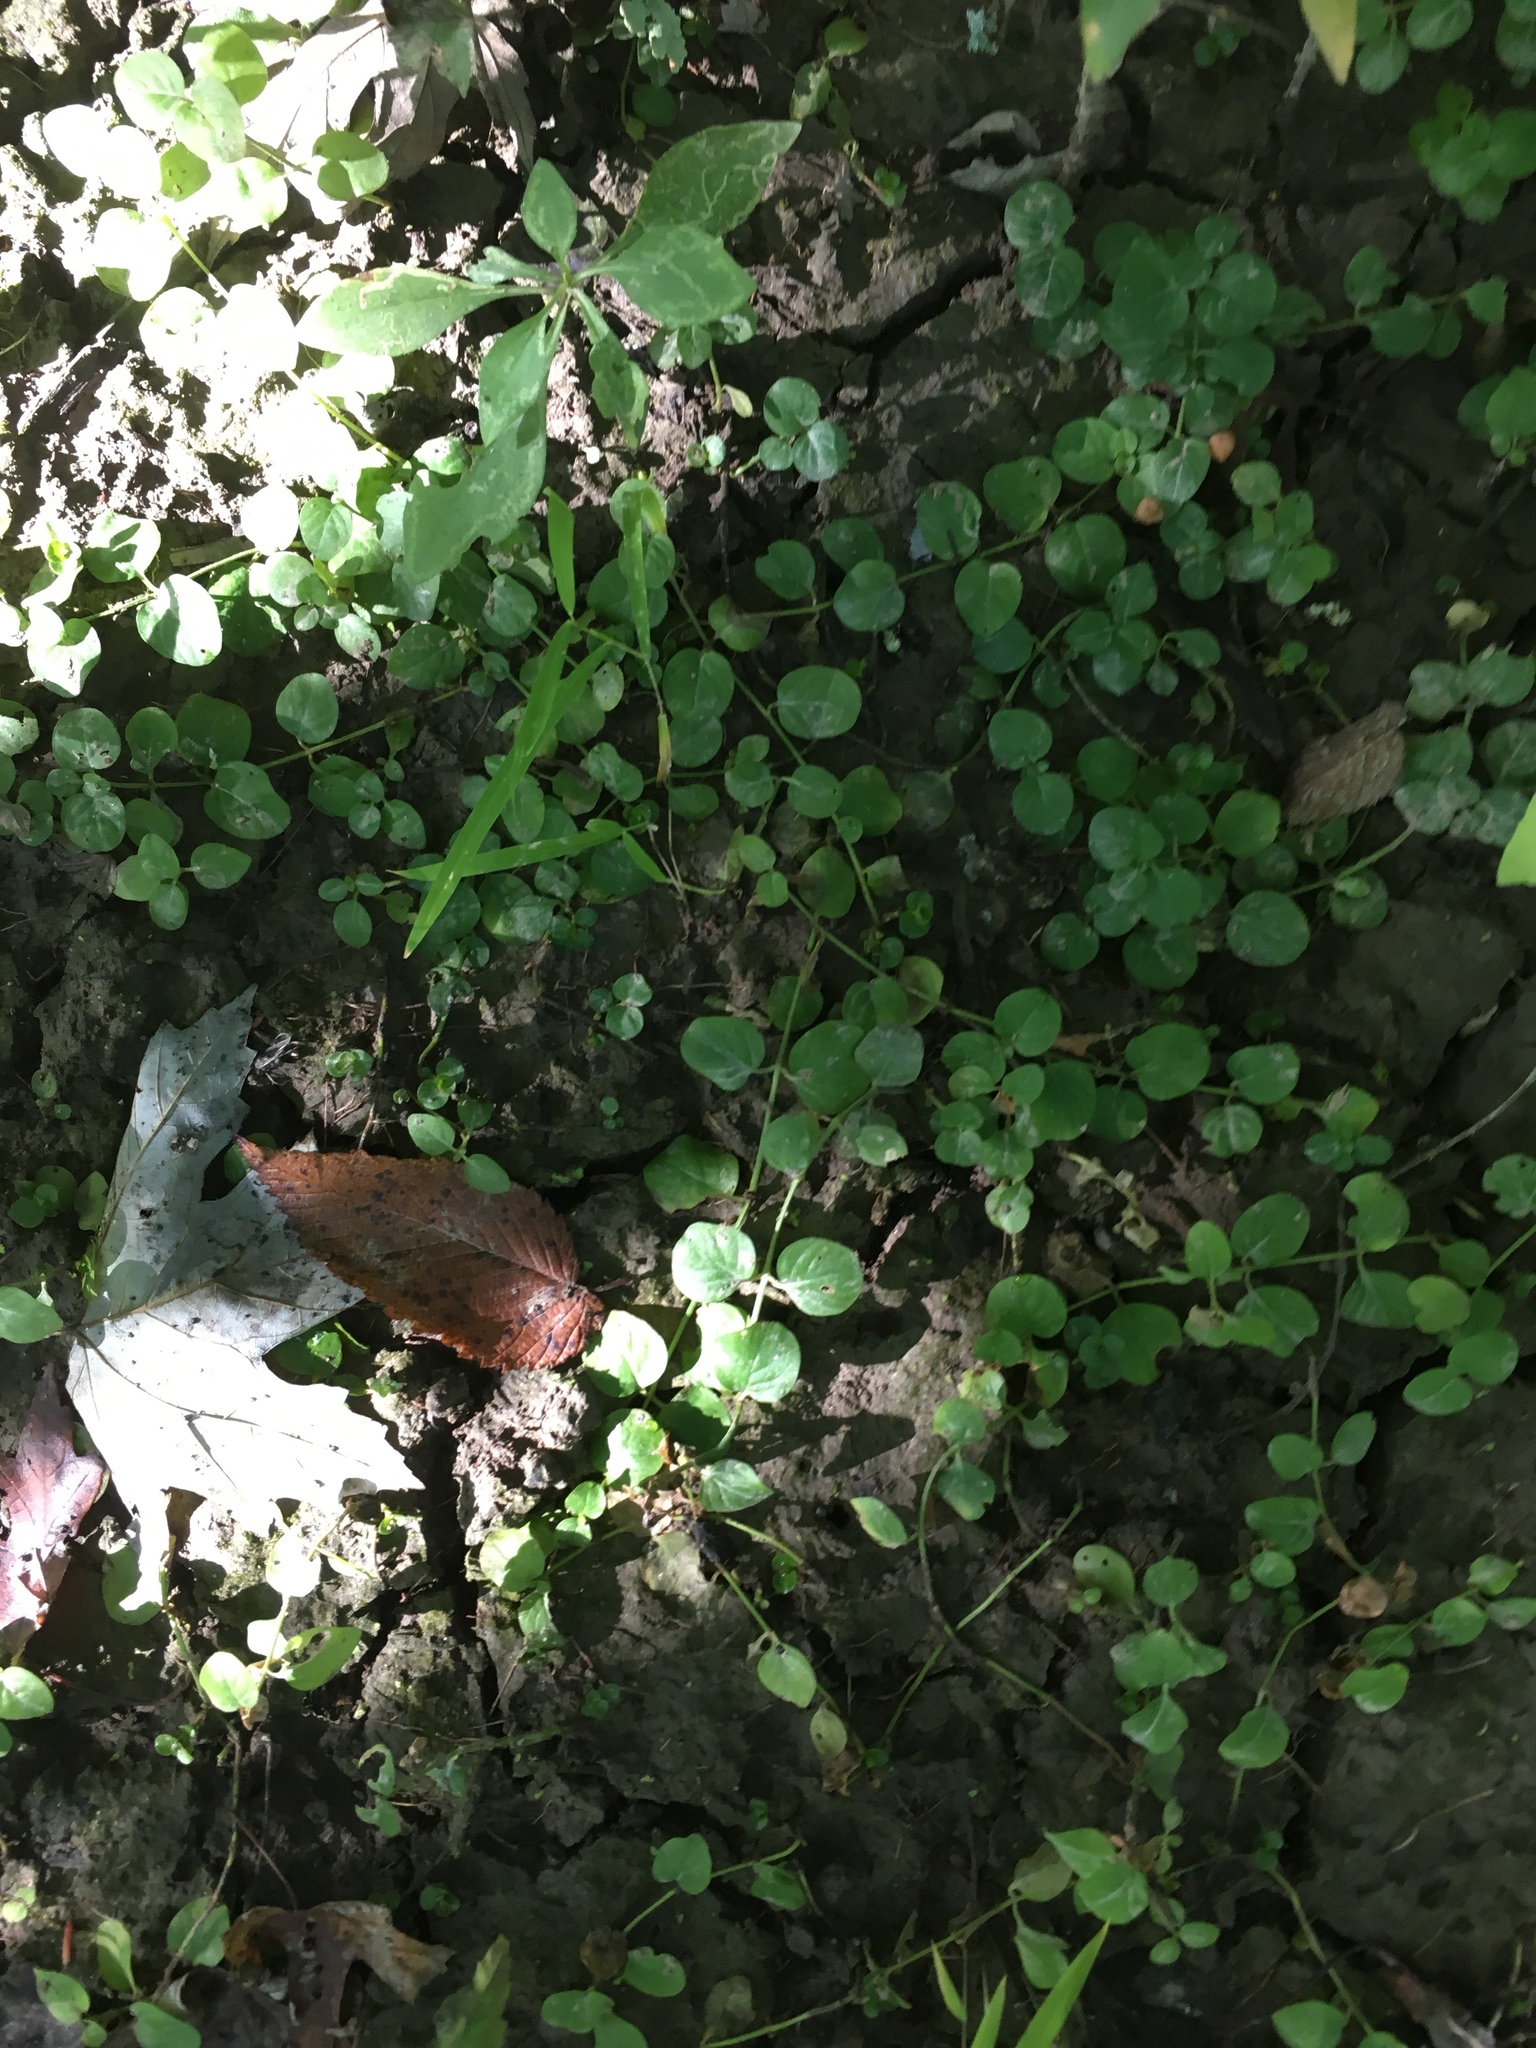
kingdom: Plantae
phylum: Tracheophyta
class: Magnoliopsida
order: Ericales
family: Primulaceae
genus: Lysimachia
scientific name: Lysimachia nummularia
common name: Moneywort
